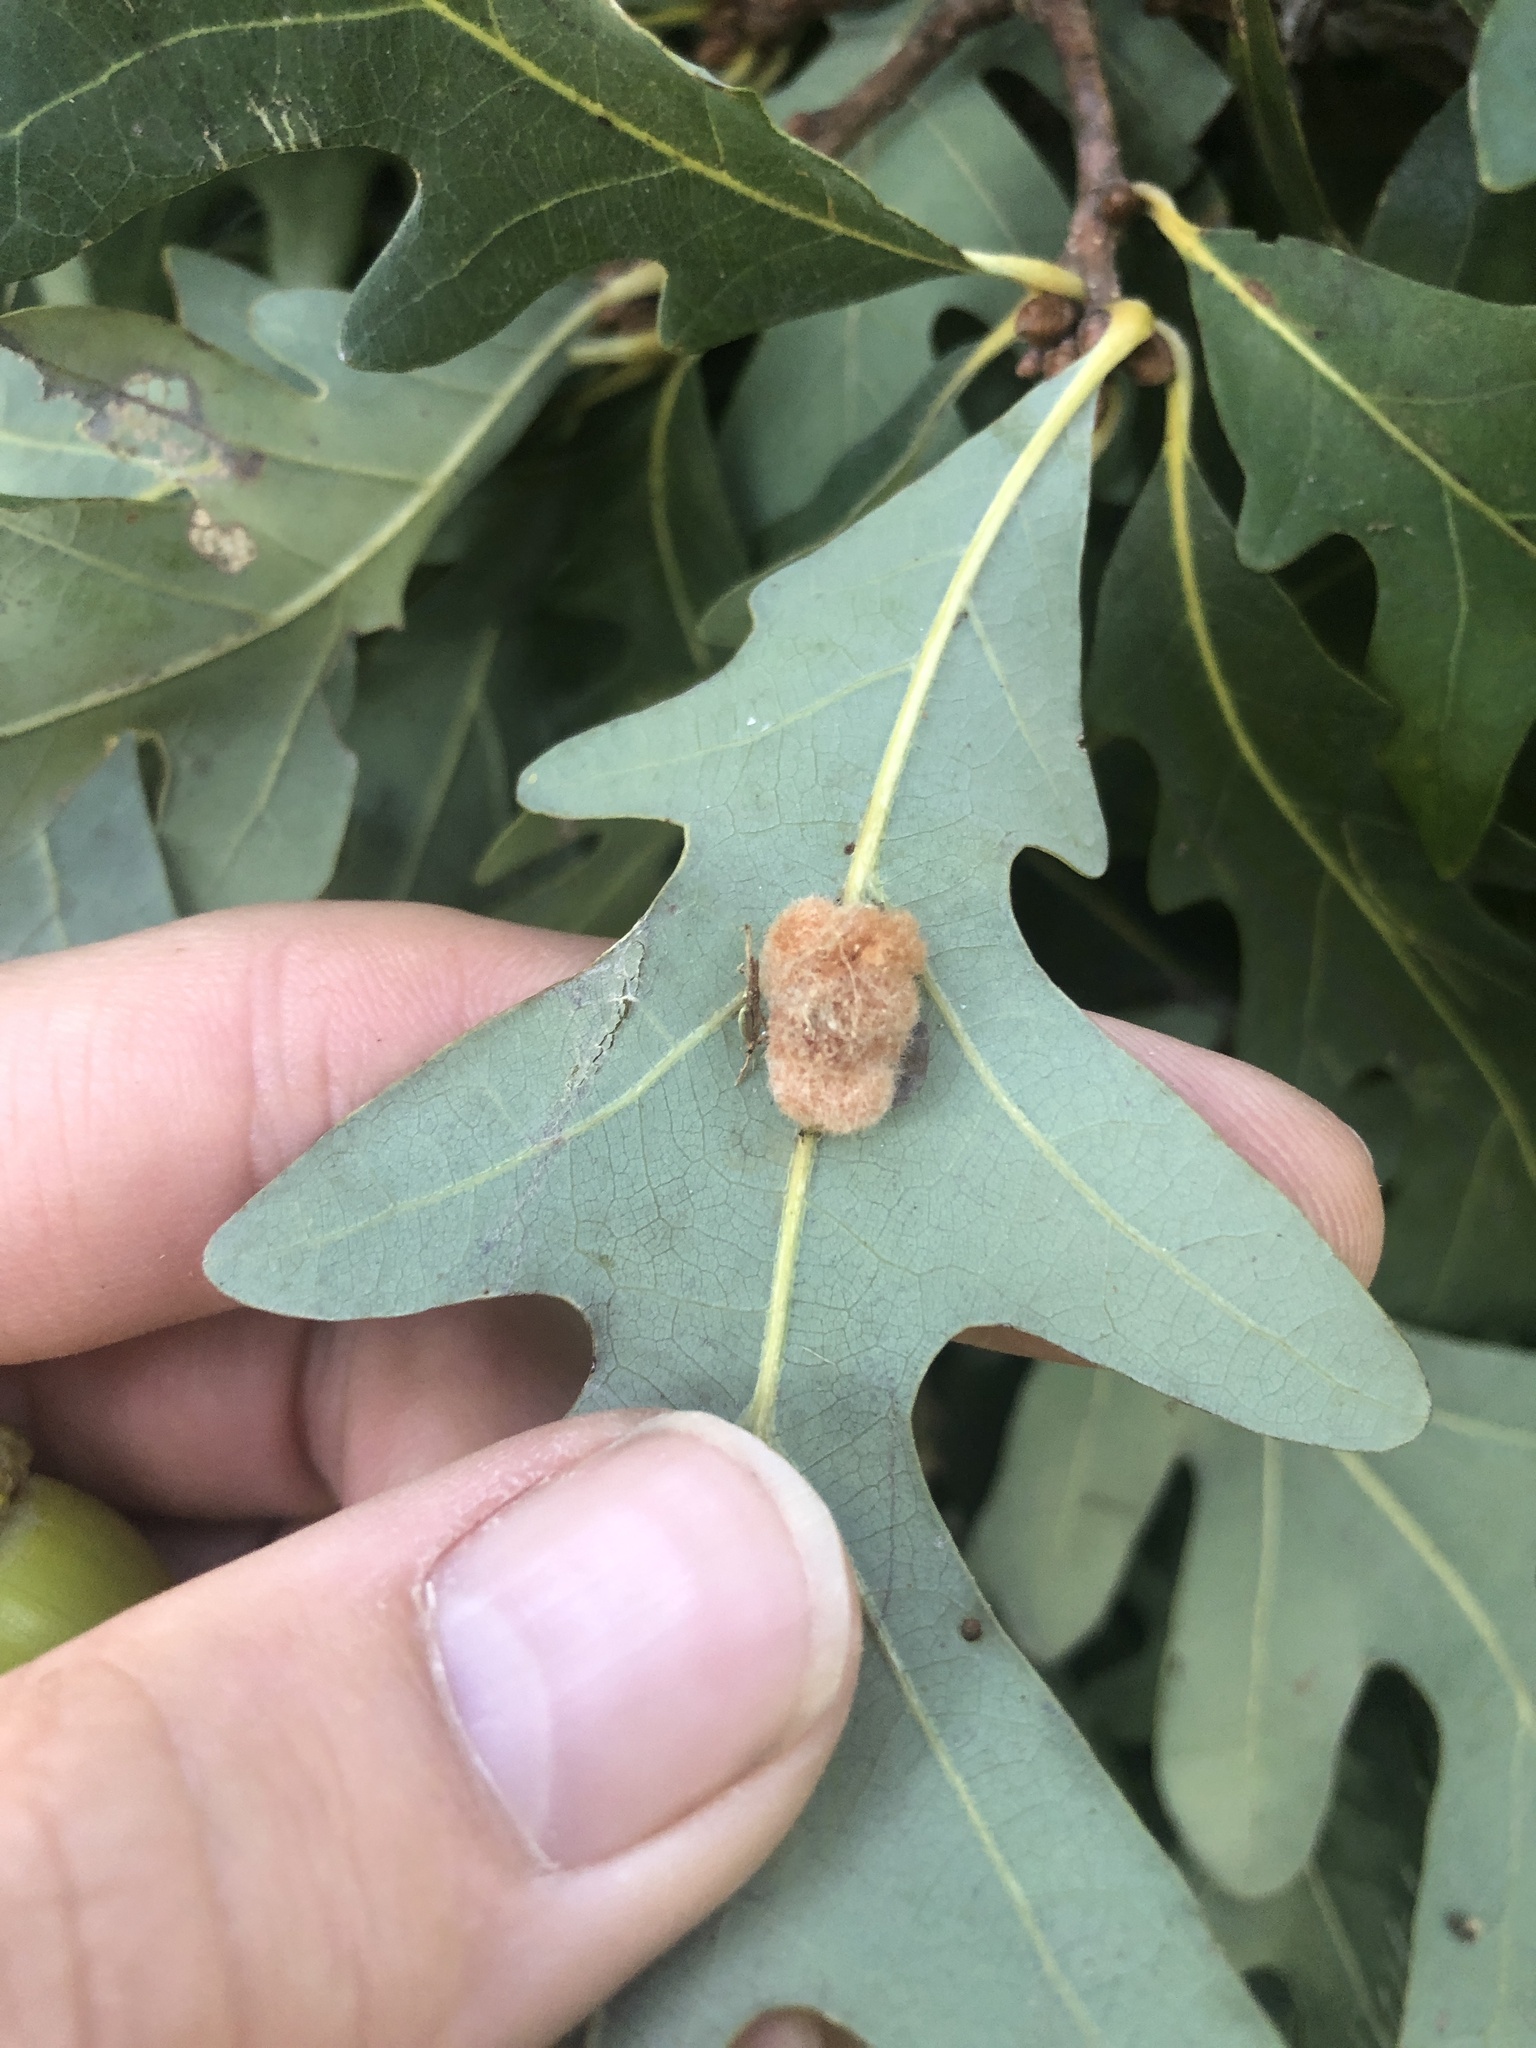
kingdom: Animalia
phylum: Arthropoda
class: Insecta
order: Hymenoptera
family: Cynipidae
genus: Andricus
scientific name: Andricus quercusflocci
